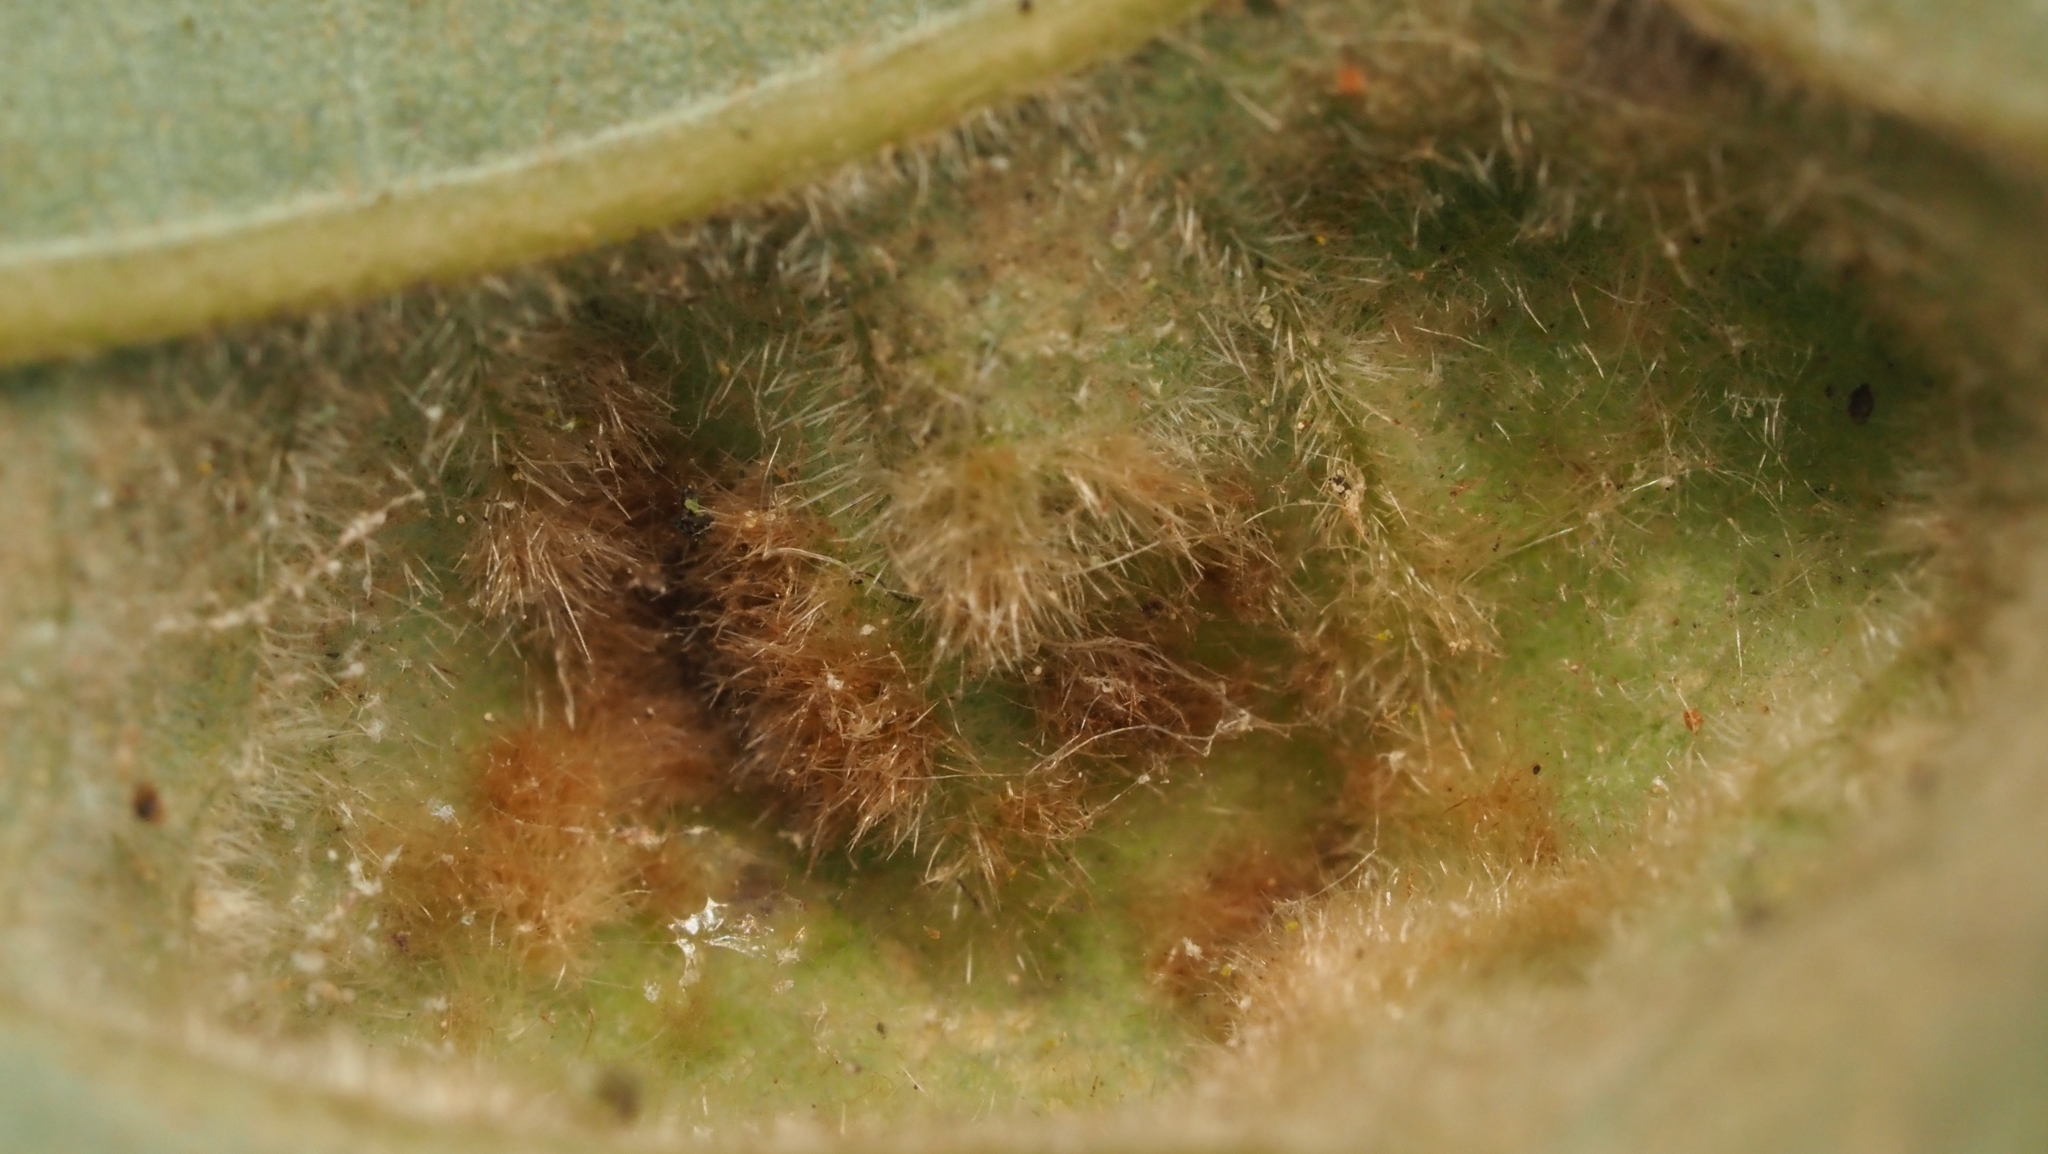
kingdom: Animalia
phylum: Arthropoda
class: Arachnida
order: Trombidiformes
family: Eriophyidae
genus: Aceria
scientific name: Aceria quercina
